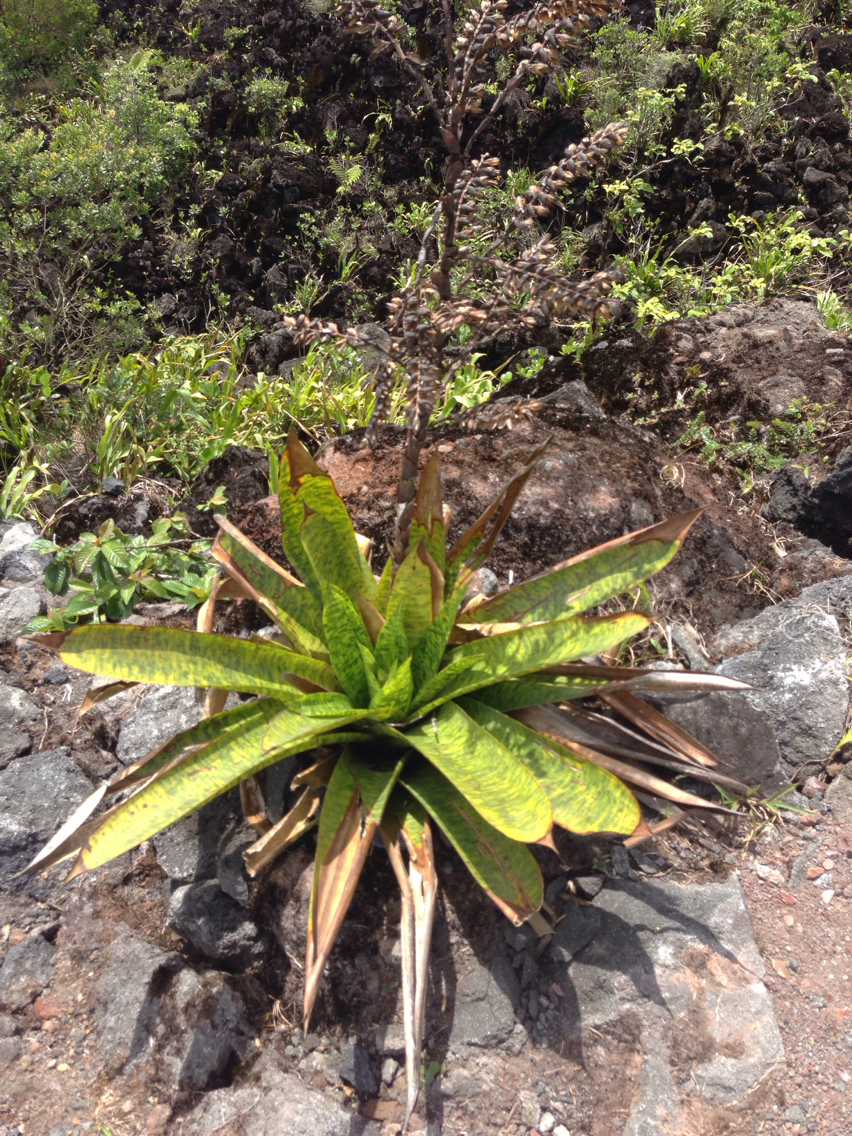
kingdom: Plantae
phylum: Tracheophyta
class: Liliopsida
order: Poales
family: Bromeliaceae
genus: Werauhia
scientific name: Werauhia kupperiana
